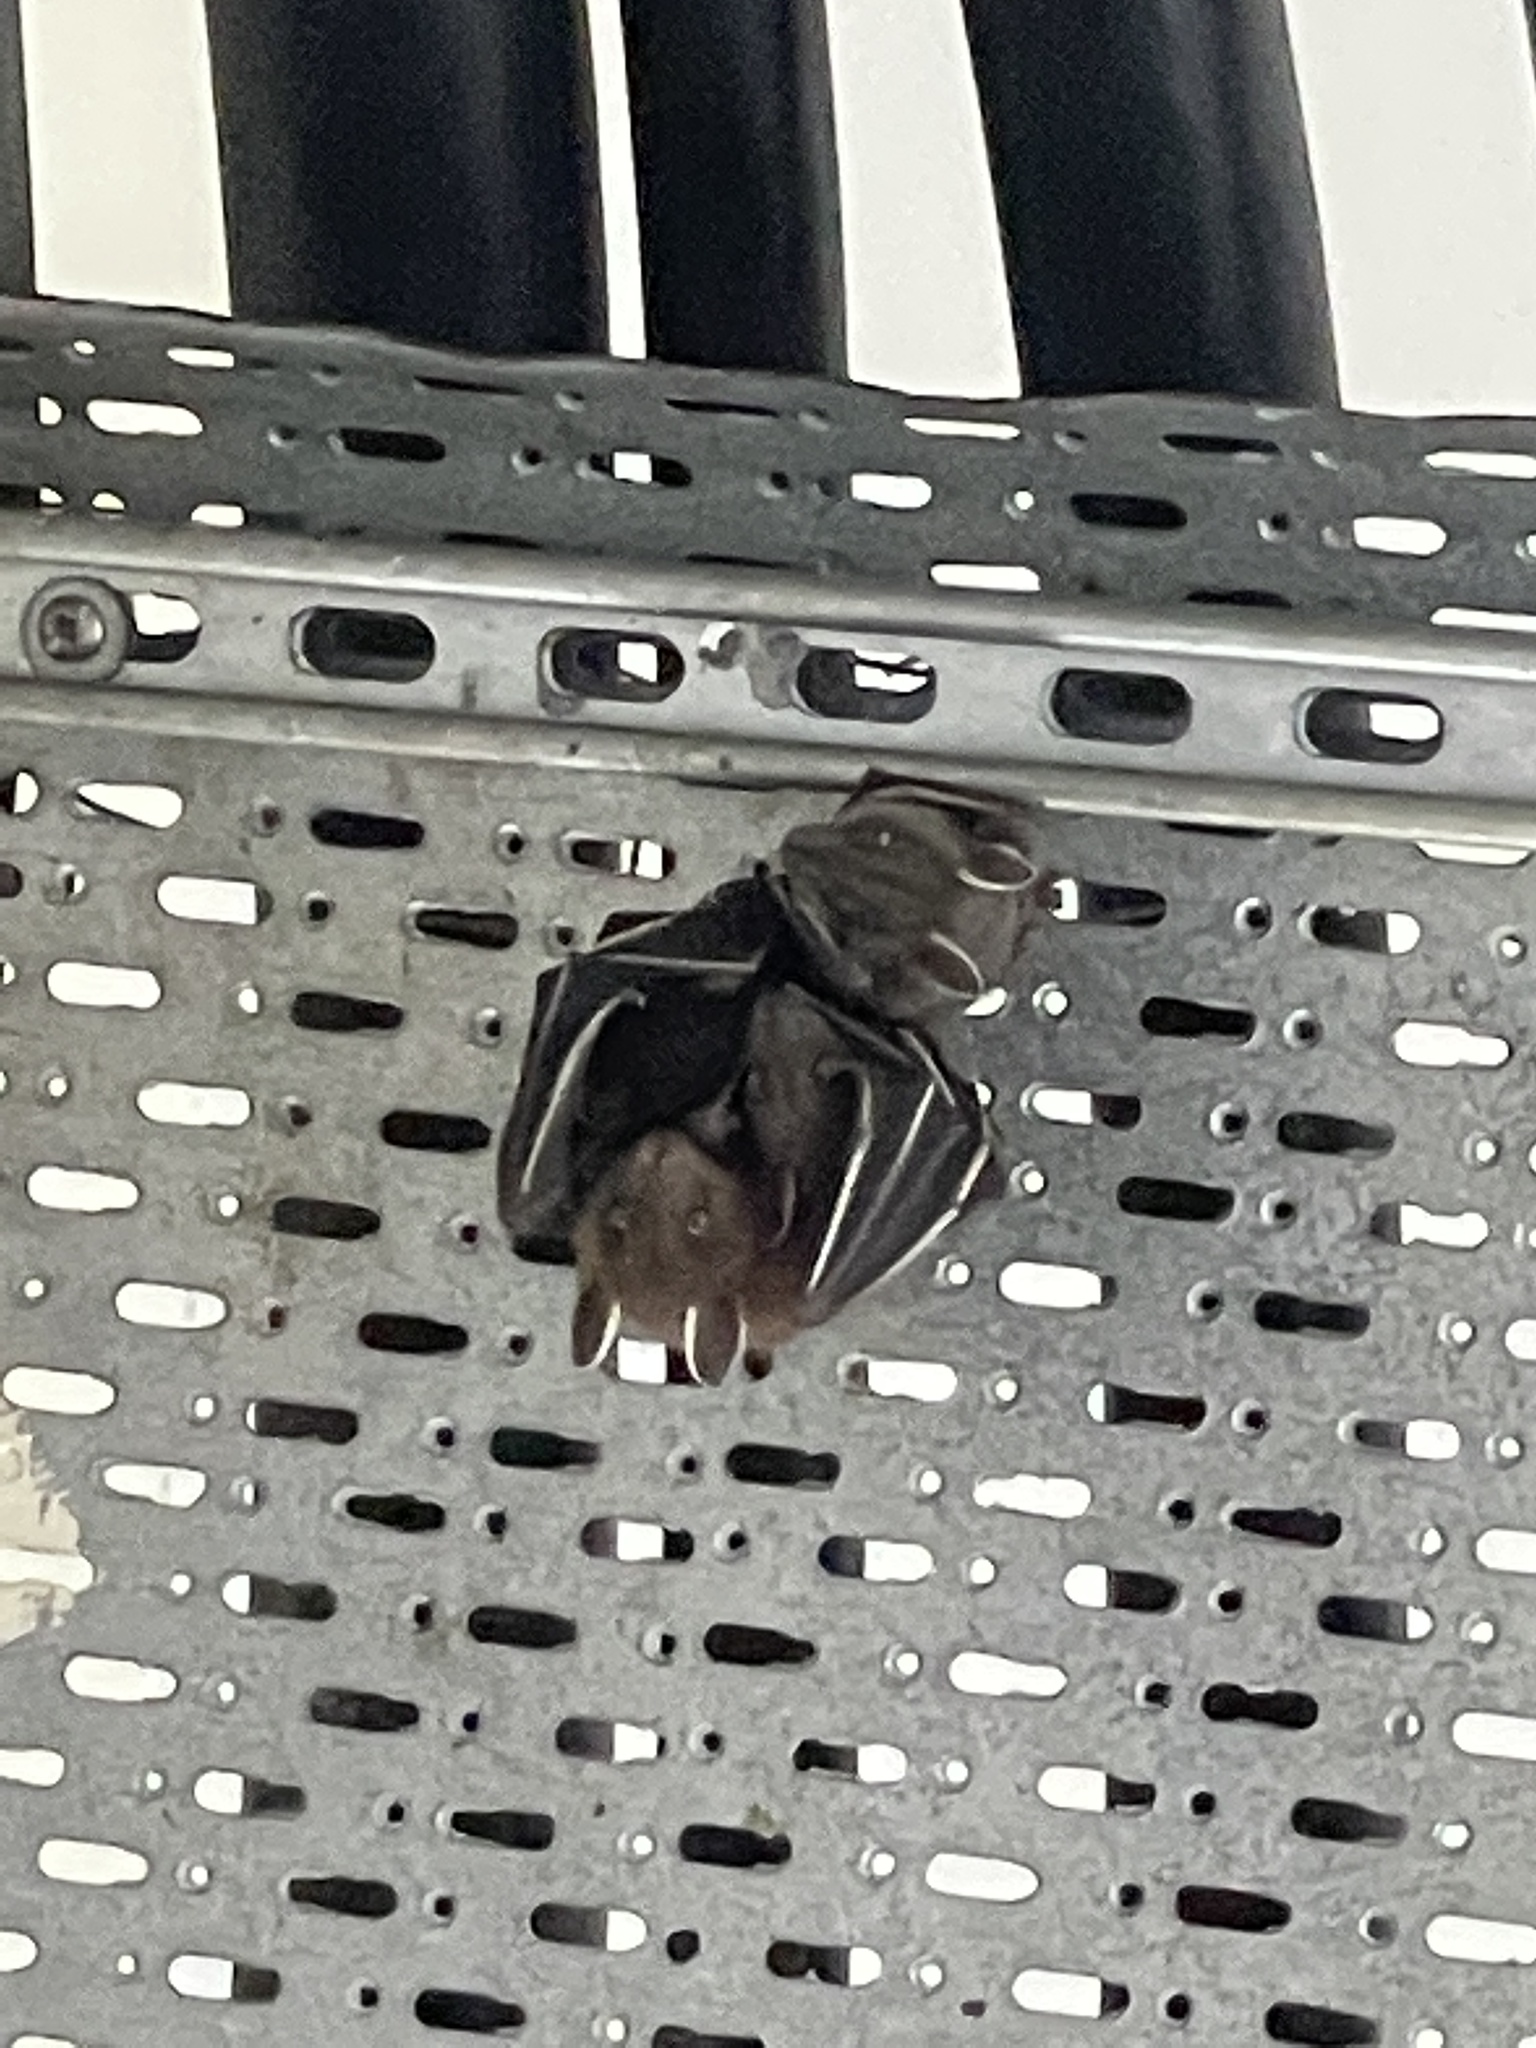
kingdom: Animalia
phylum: Chordata
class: Mammalia
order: Chiroptera
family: Pteropodidae
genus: Cynopterus
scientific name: Cynopterus sphinx
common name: Greater short-nosed fruit bat
